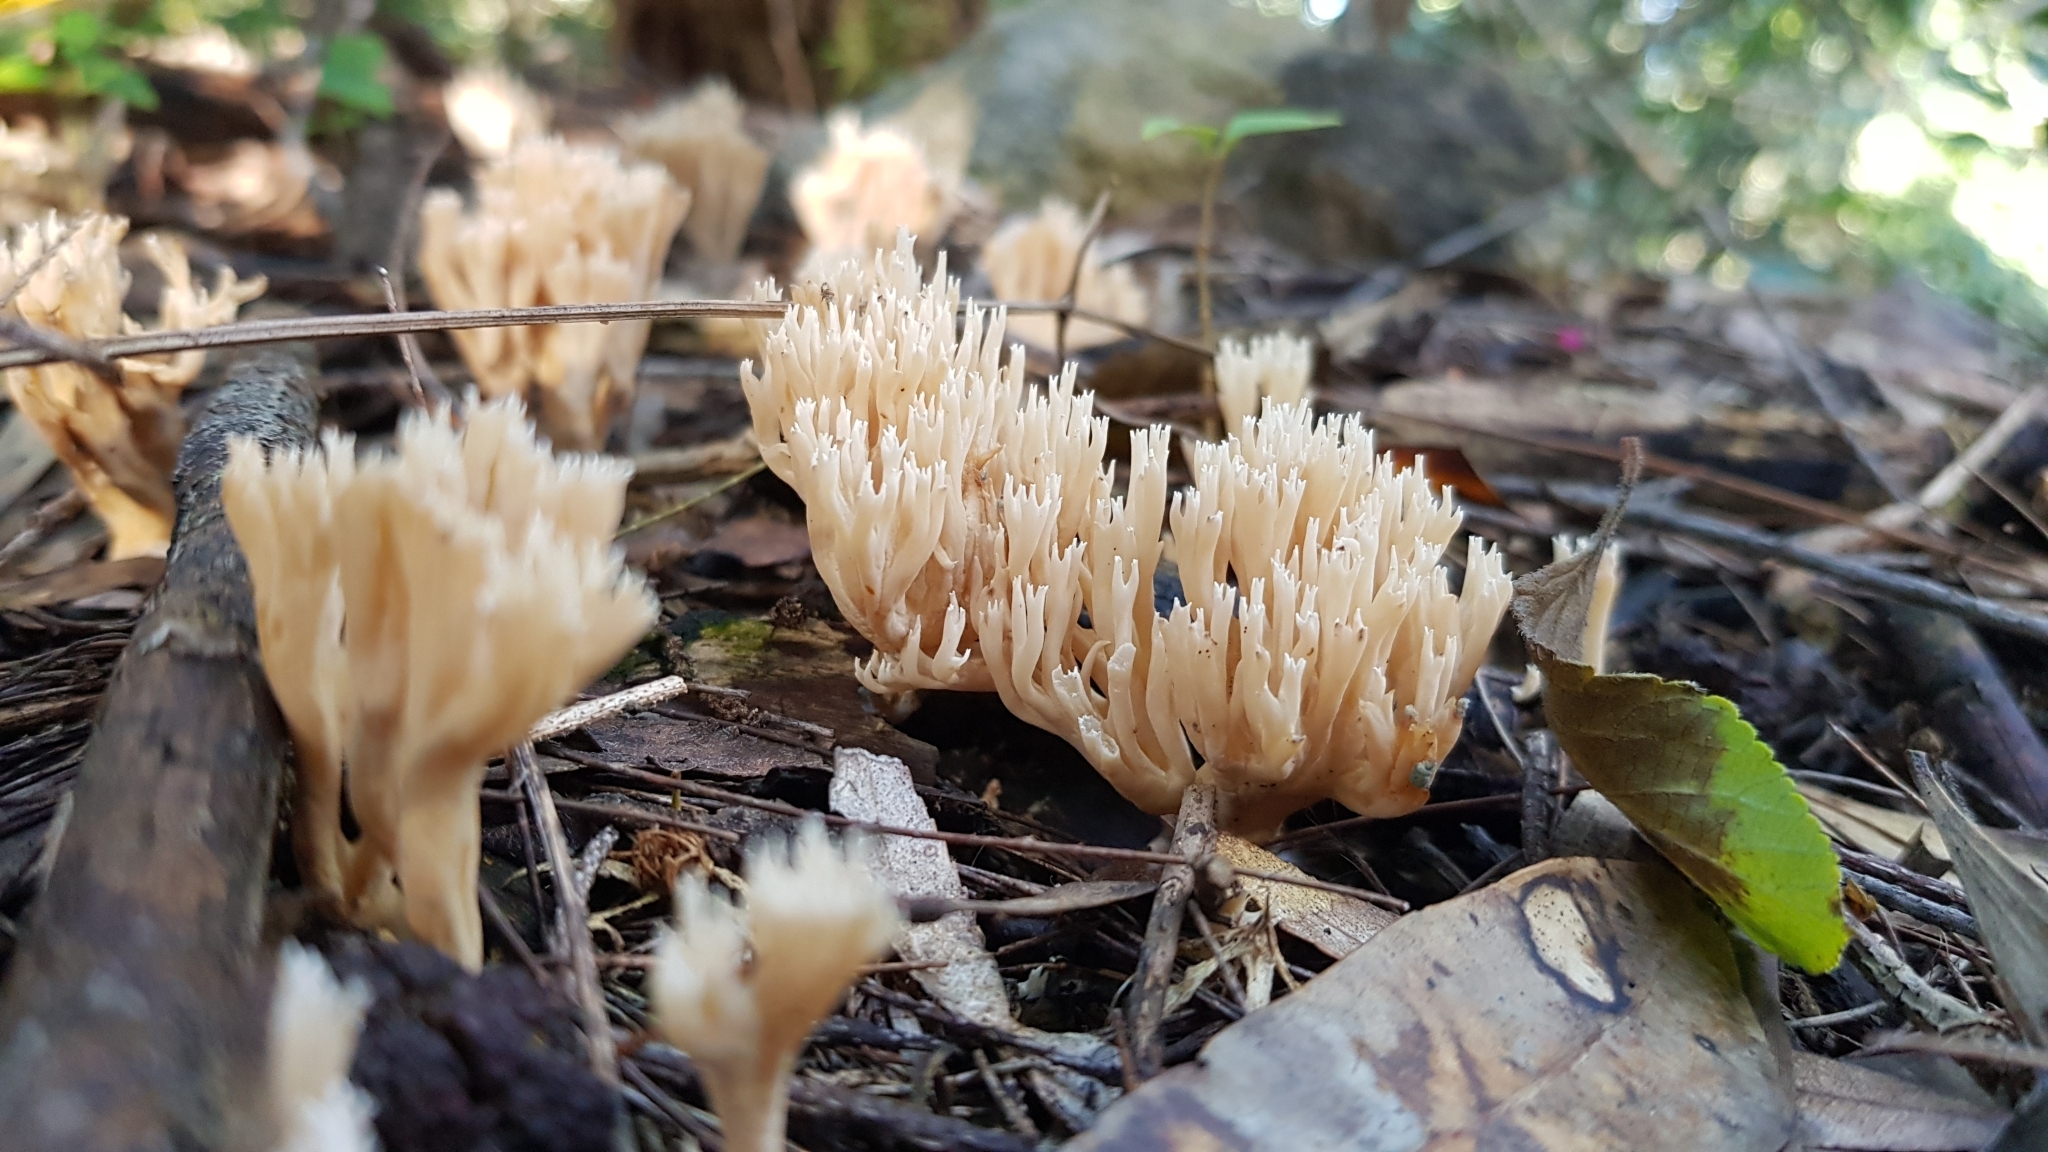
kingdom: Fungi
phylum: Basidiomycota
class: Agaricomycetes
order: Gomphales
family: Gomphaceae
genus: Ramaria
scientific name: Ramaria filicicola
